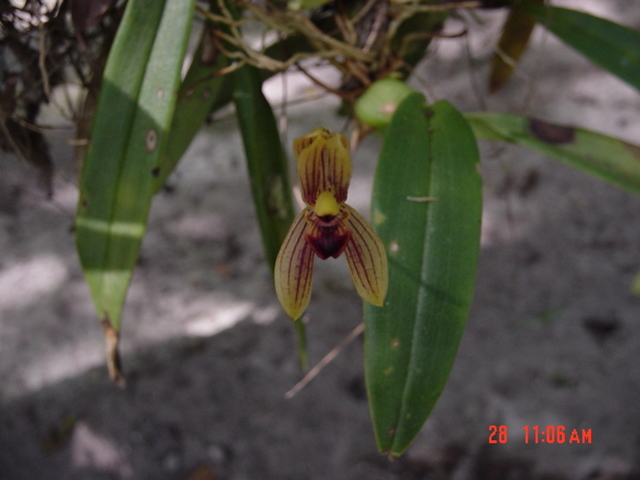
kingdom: Plantae
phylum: Tracheophyta
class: Liliopsida
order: Asparagales
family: Orchidaceae
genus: Maxillaria
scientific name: Maxillaria lineolata
